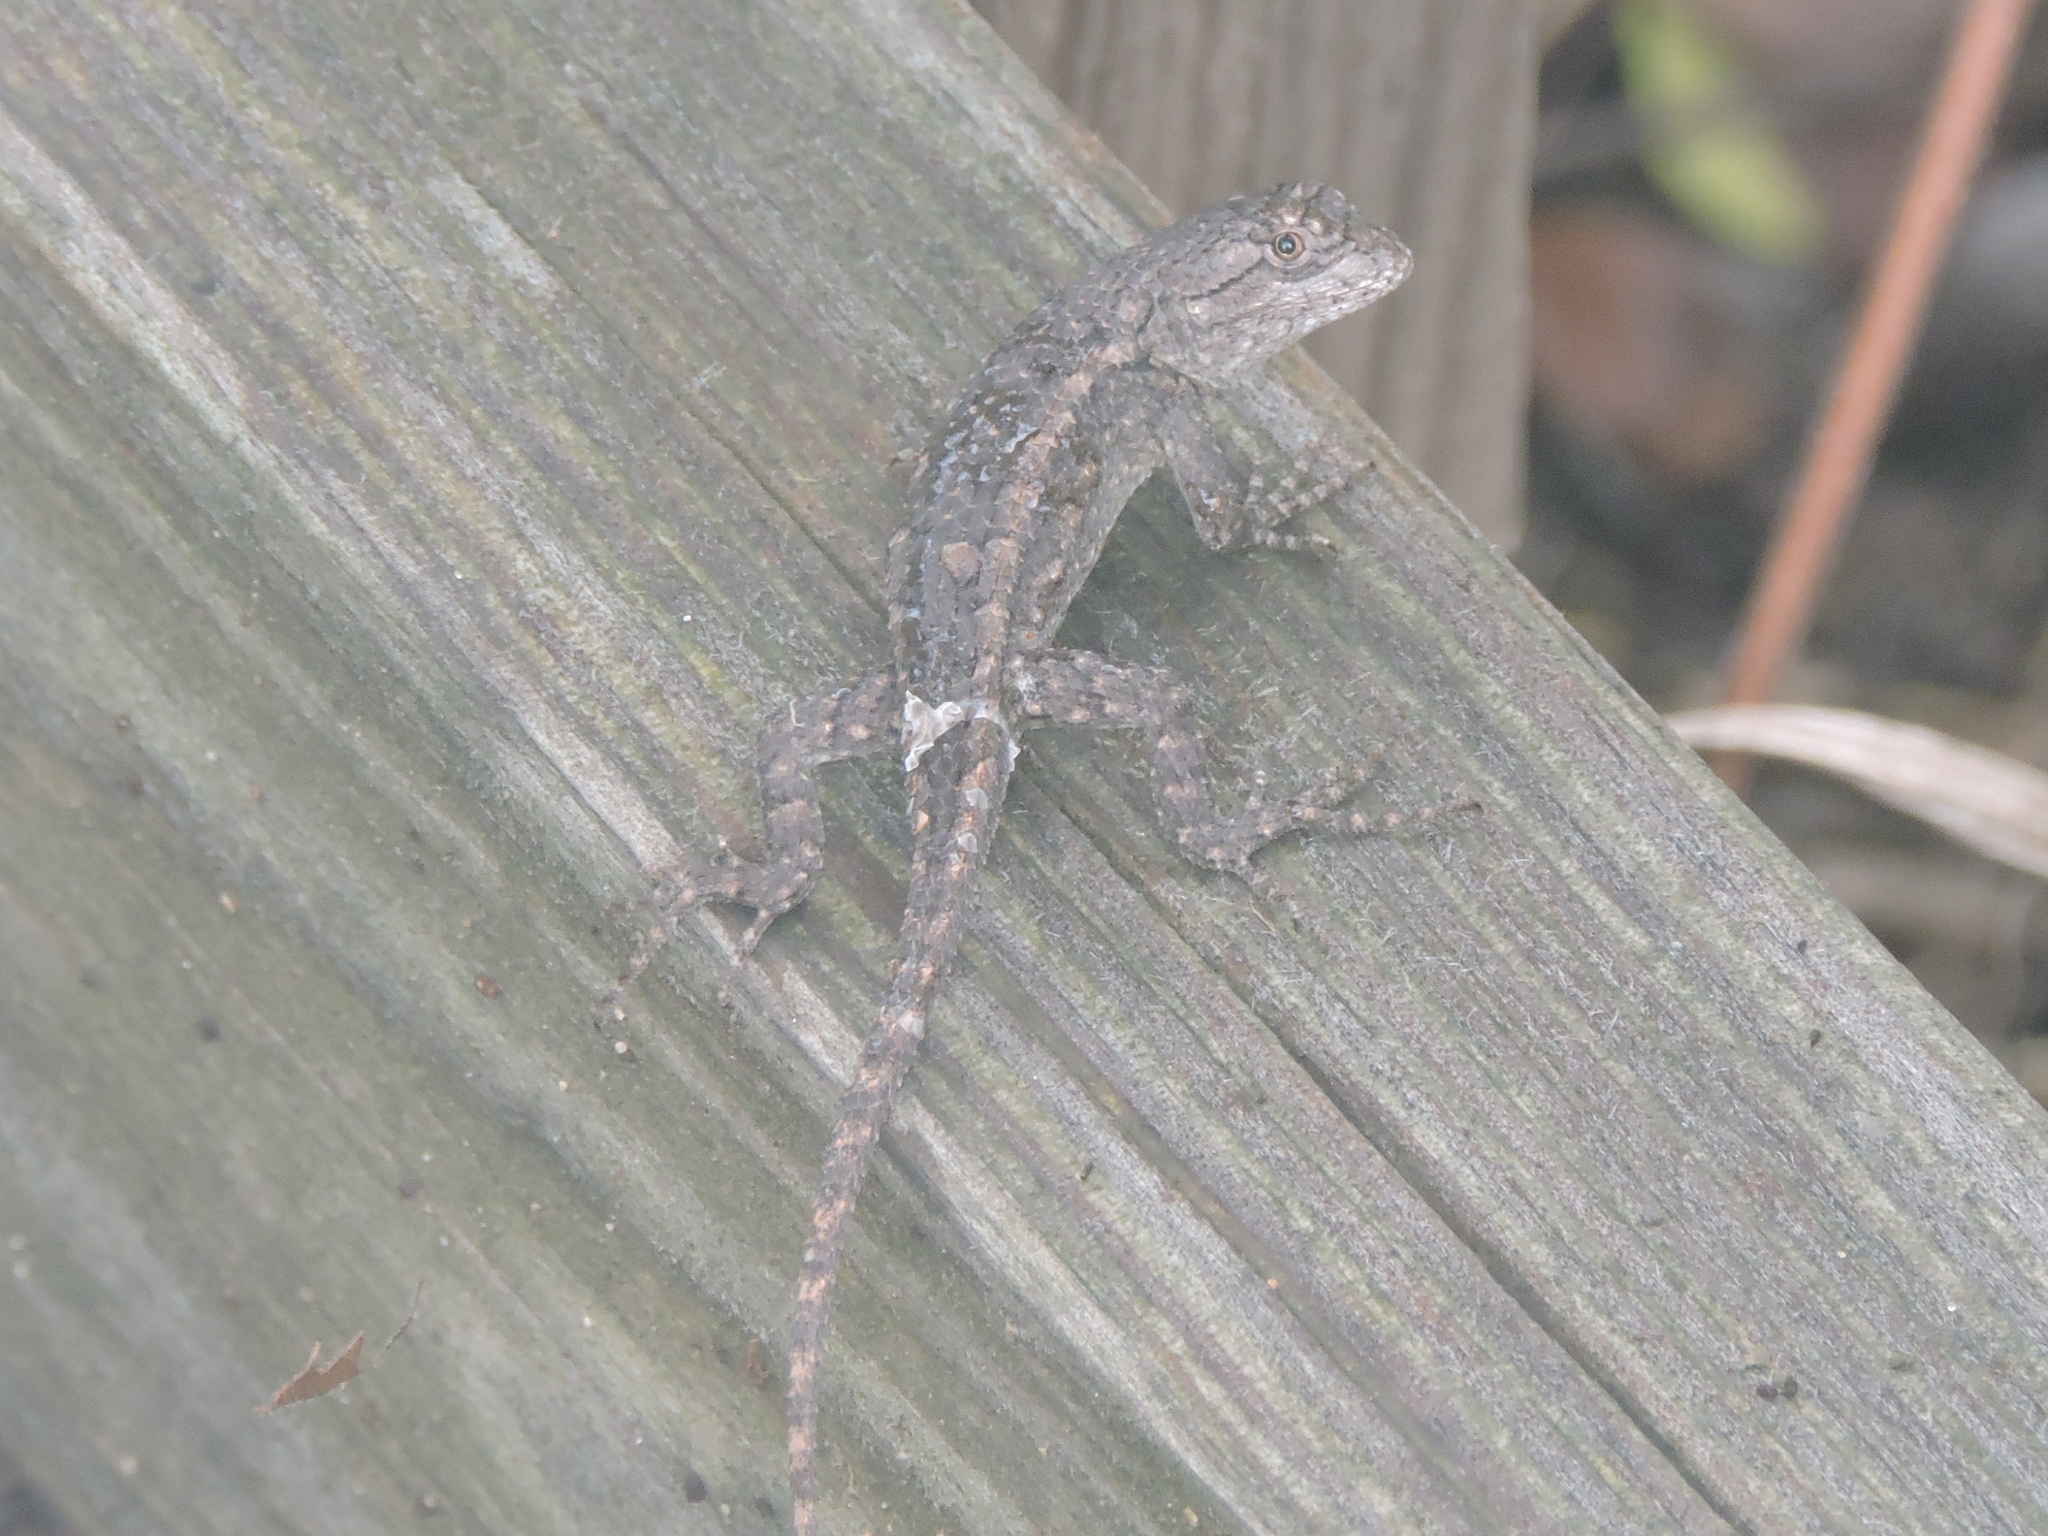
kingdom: Animalia
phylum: Chordata
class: Squamata
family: Phrynosomatidae
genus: Sceloporus
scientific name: Sceloporus olivaceus
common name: Texas spiny lizard
